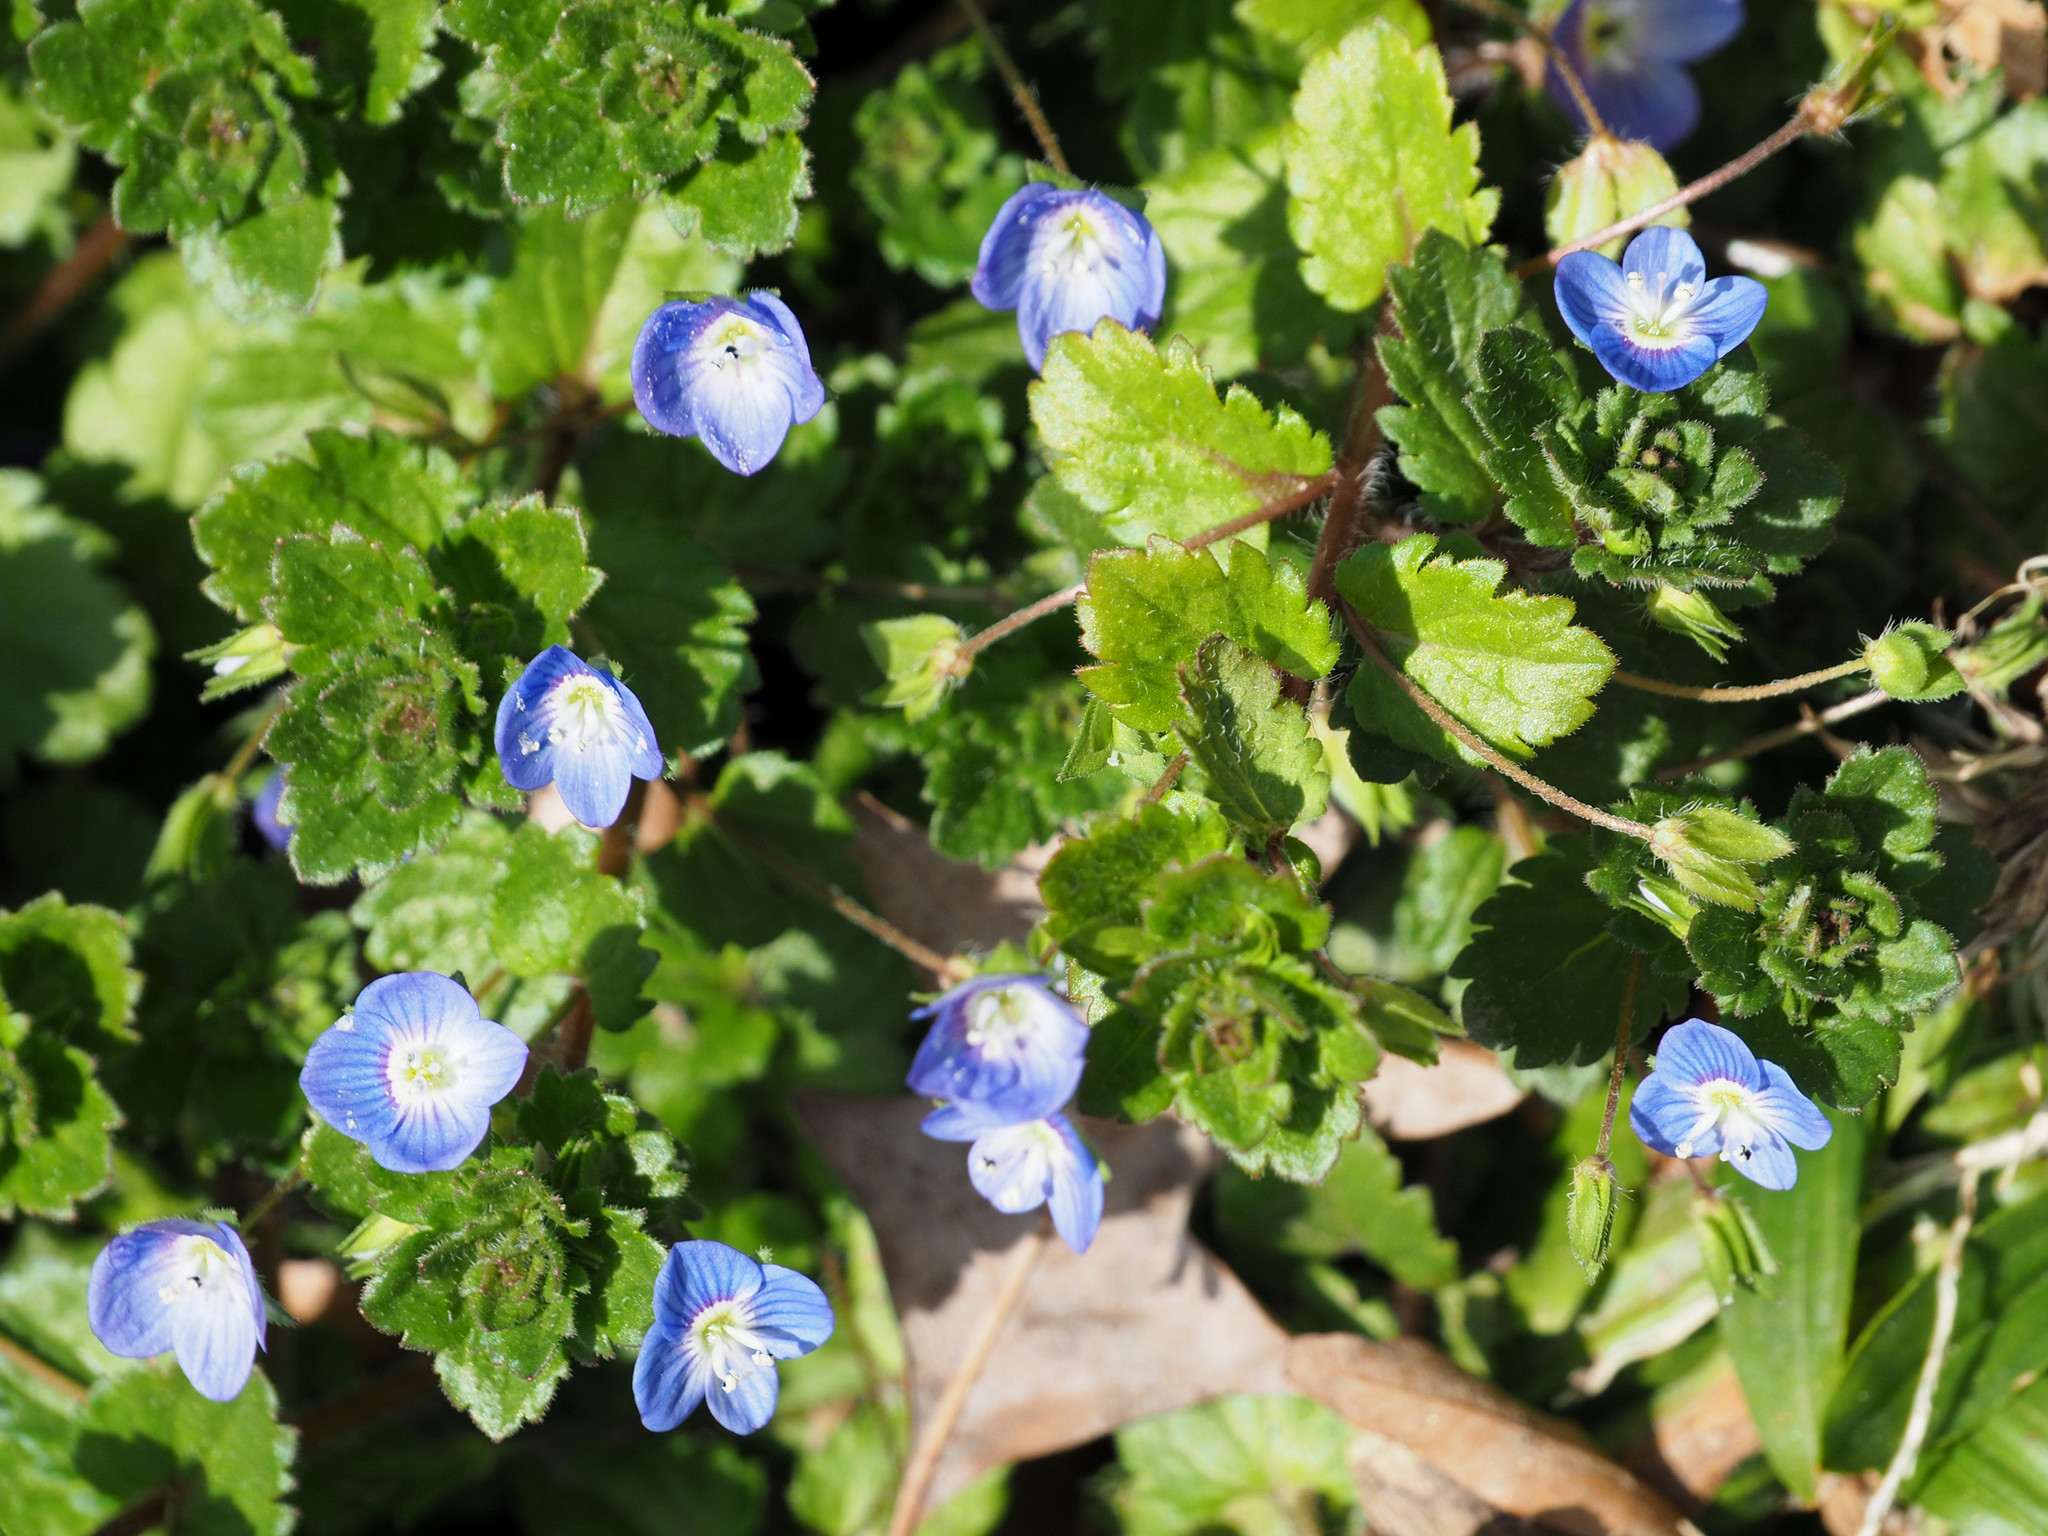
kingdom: Plantae
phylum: Tracheophyta
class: Magnoliopsida
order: Lamiales
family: Plantaginaceae
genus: Veronica
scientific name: Veronica persica
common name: Common field-speedwell
